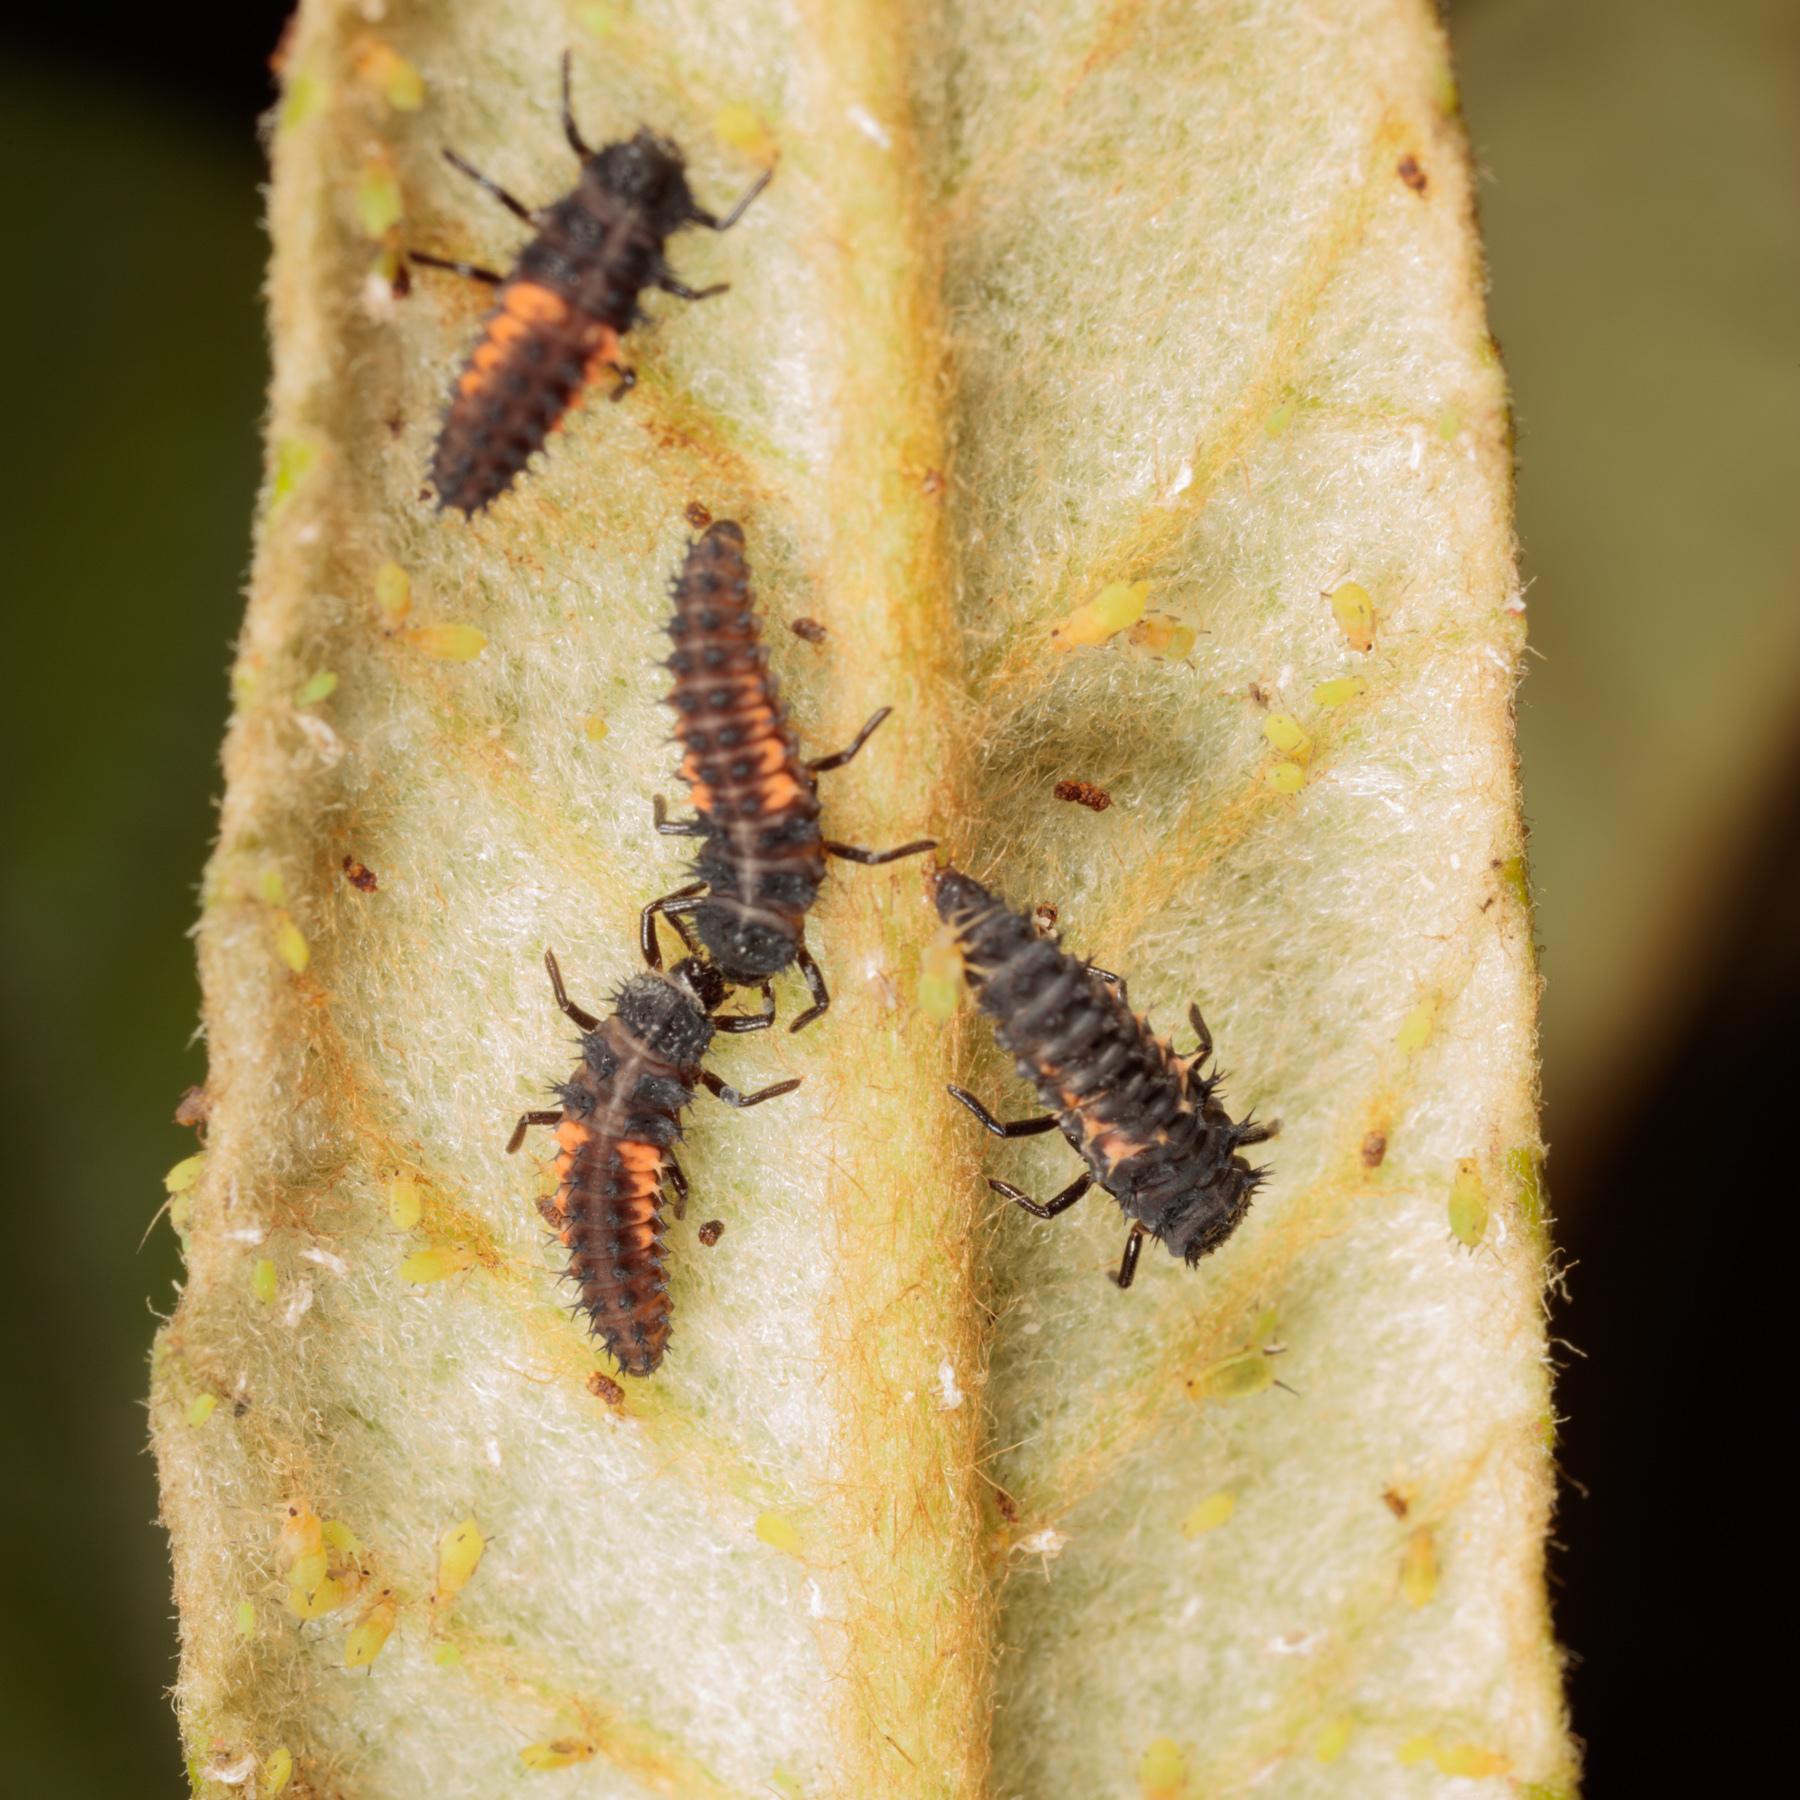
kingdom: Animalia
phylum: Arthropoda
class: Insecta
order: Coleoptera
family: Coccinellidae
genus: Harmonia
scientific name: Harmonia axyridis
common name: Harlequin ladybird
